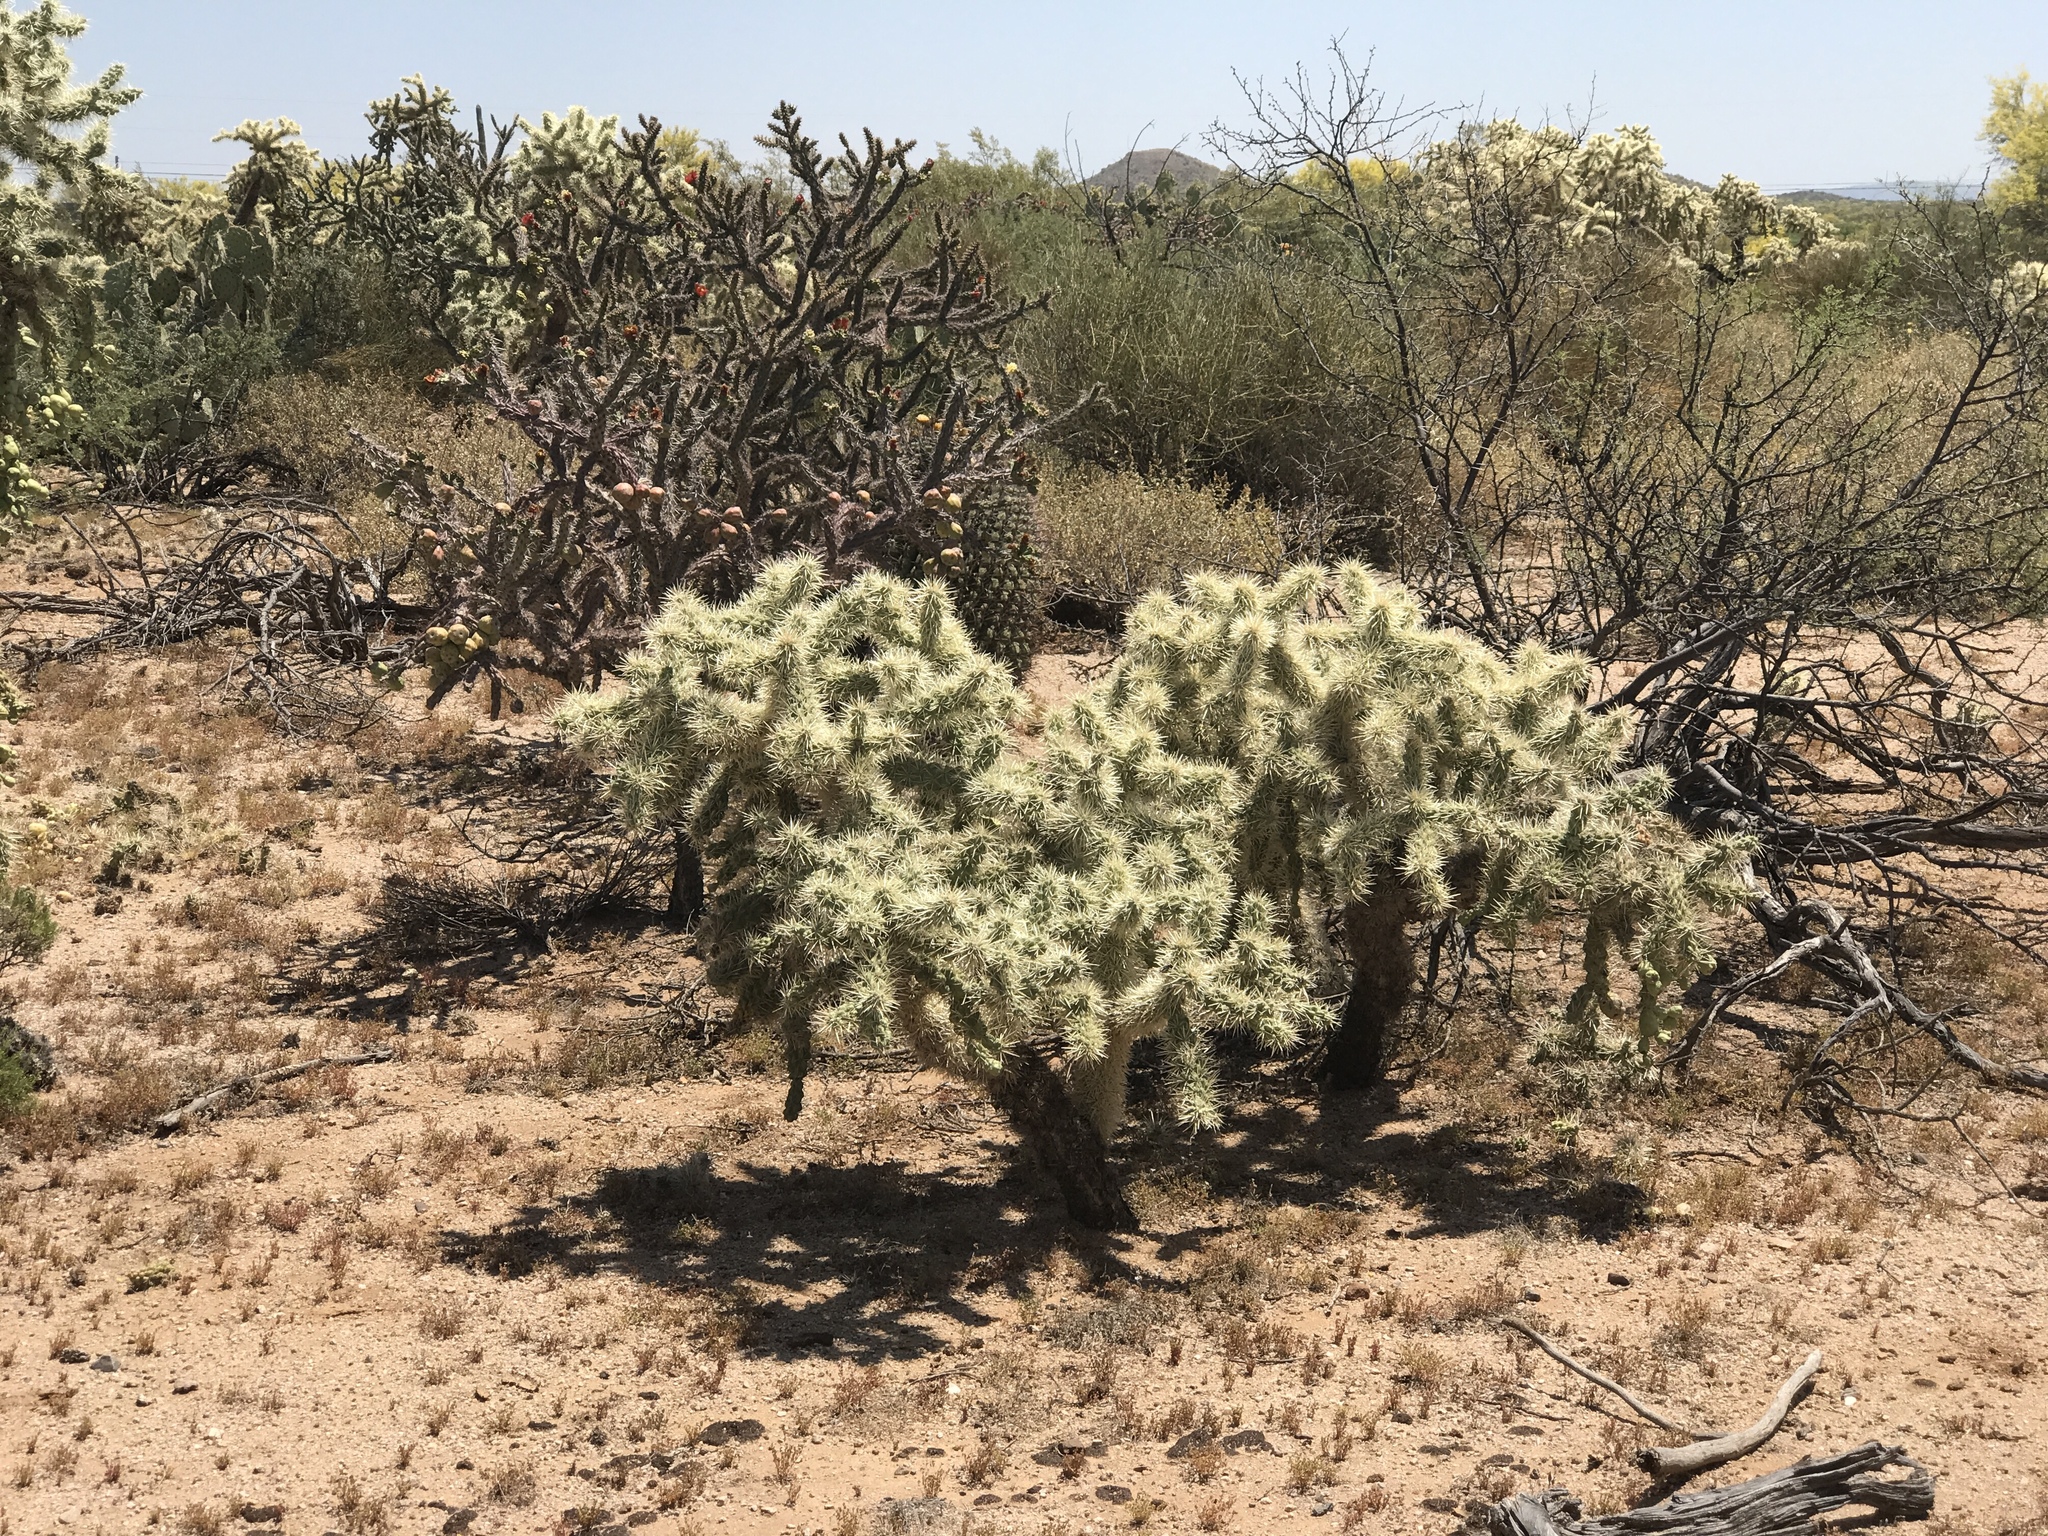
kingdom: Plantae
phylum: Tracheophyta
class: Magnoliopsida
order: Caryophyllales
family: Cactaceae
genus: Cylindropuntia
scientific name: Cylindropuntia fulgida
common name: Jumping cholla
